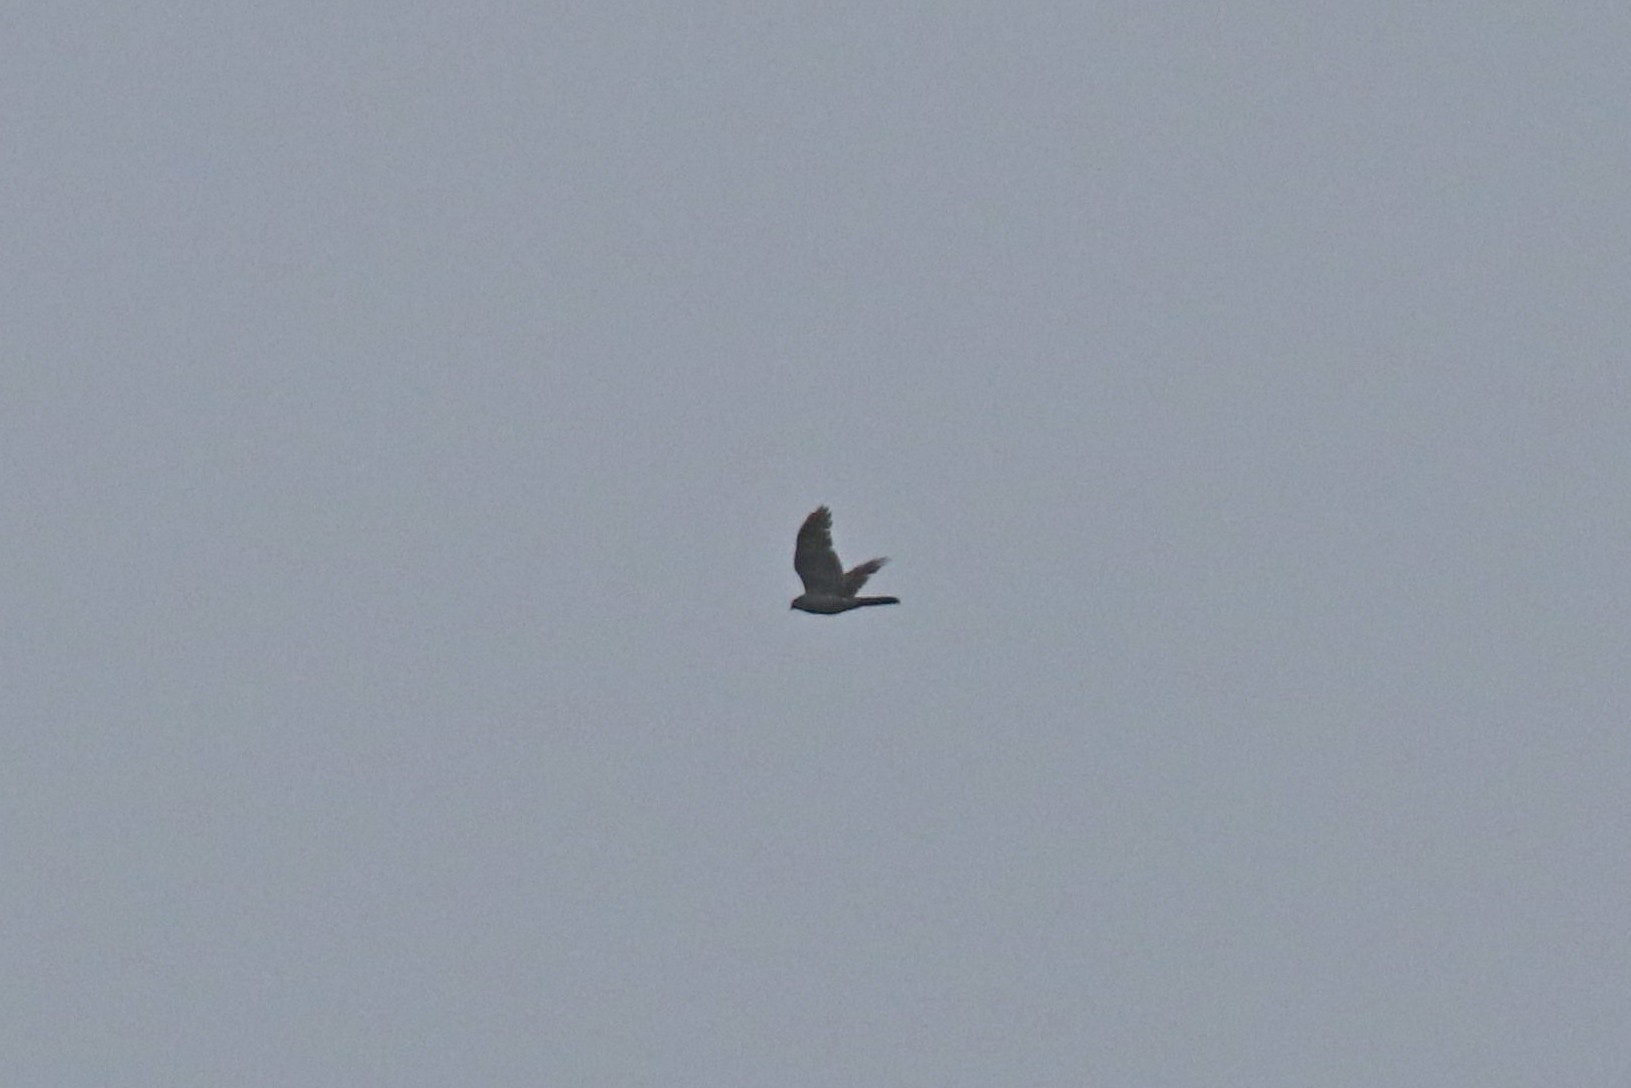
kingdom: Animalia
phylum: Chordata
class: Aves
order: Accipitriformes
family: Accipitridae
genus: Accipiter
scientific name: Accipiter nisus
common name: Eurasian sparrowhawk
